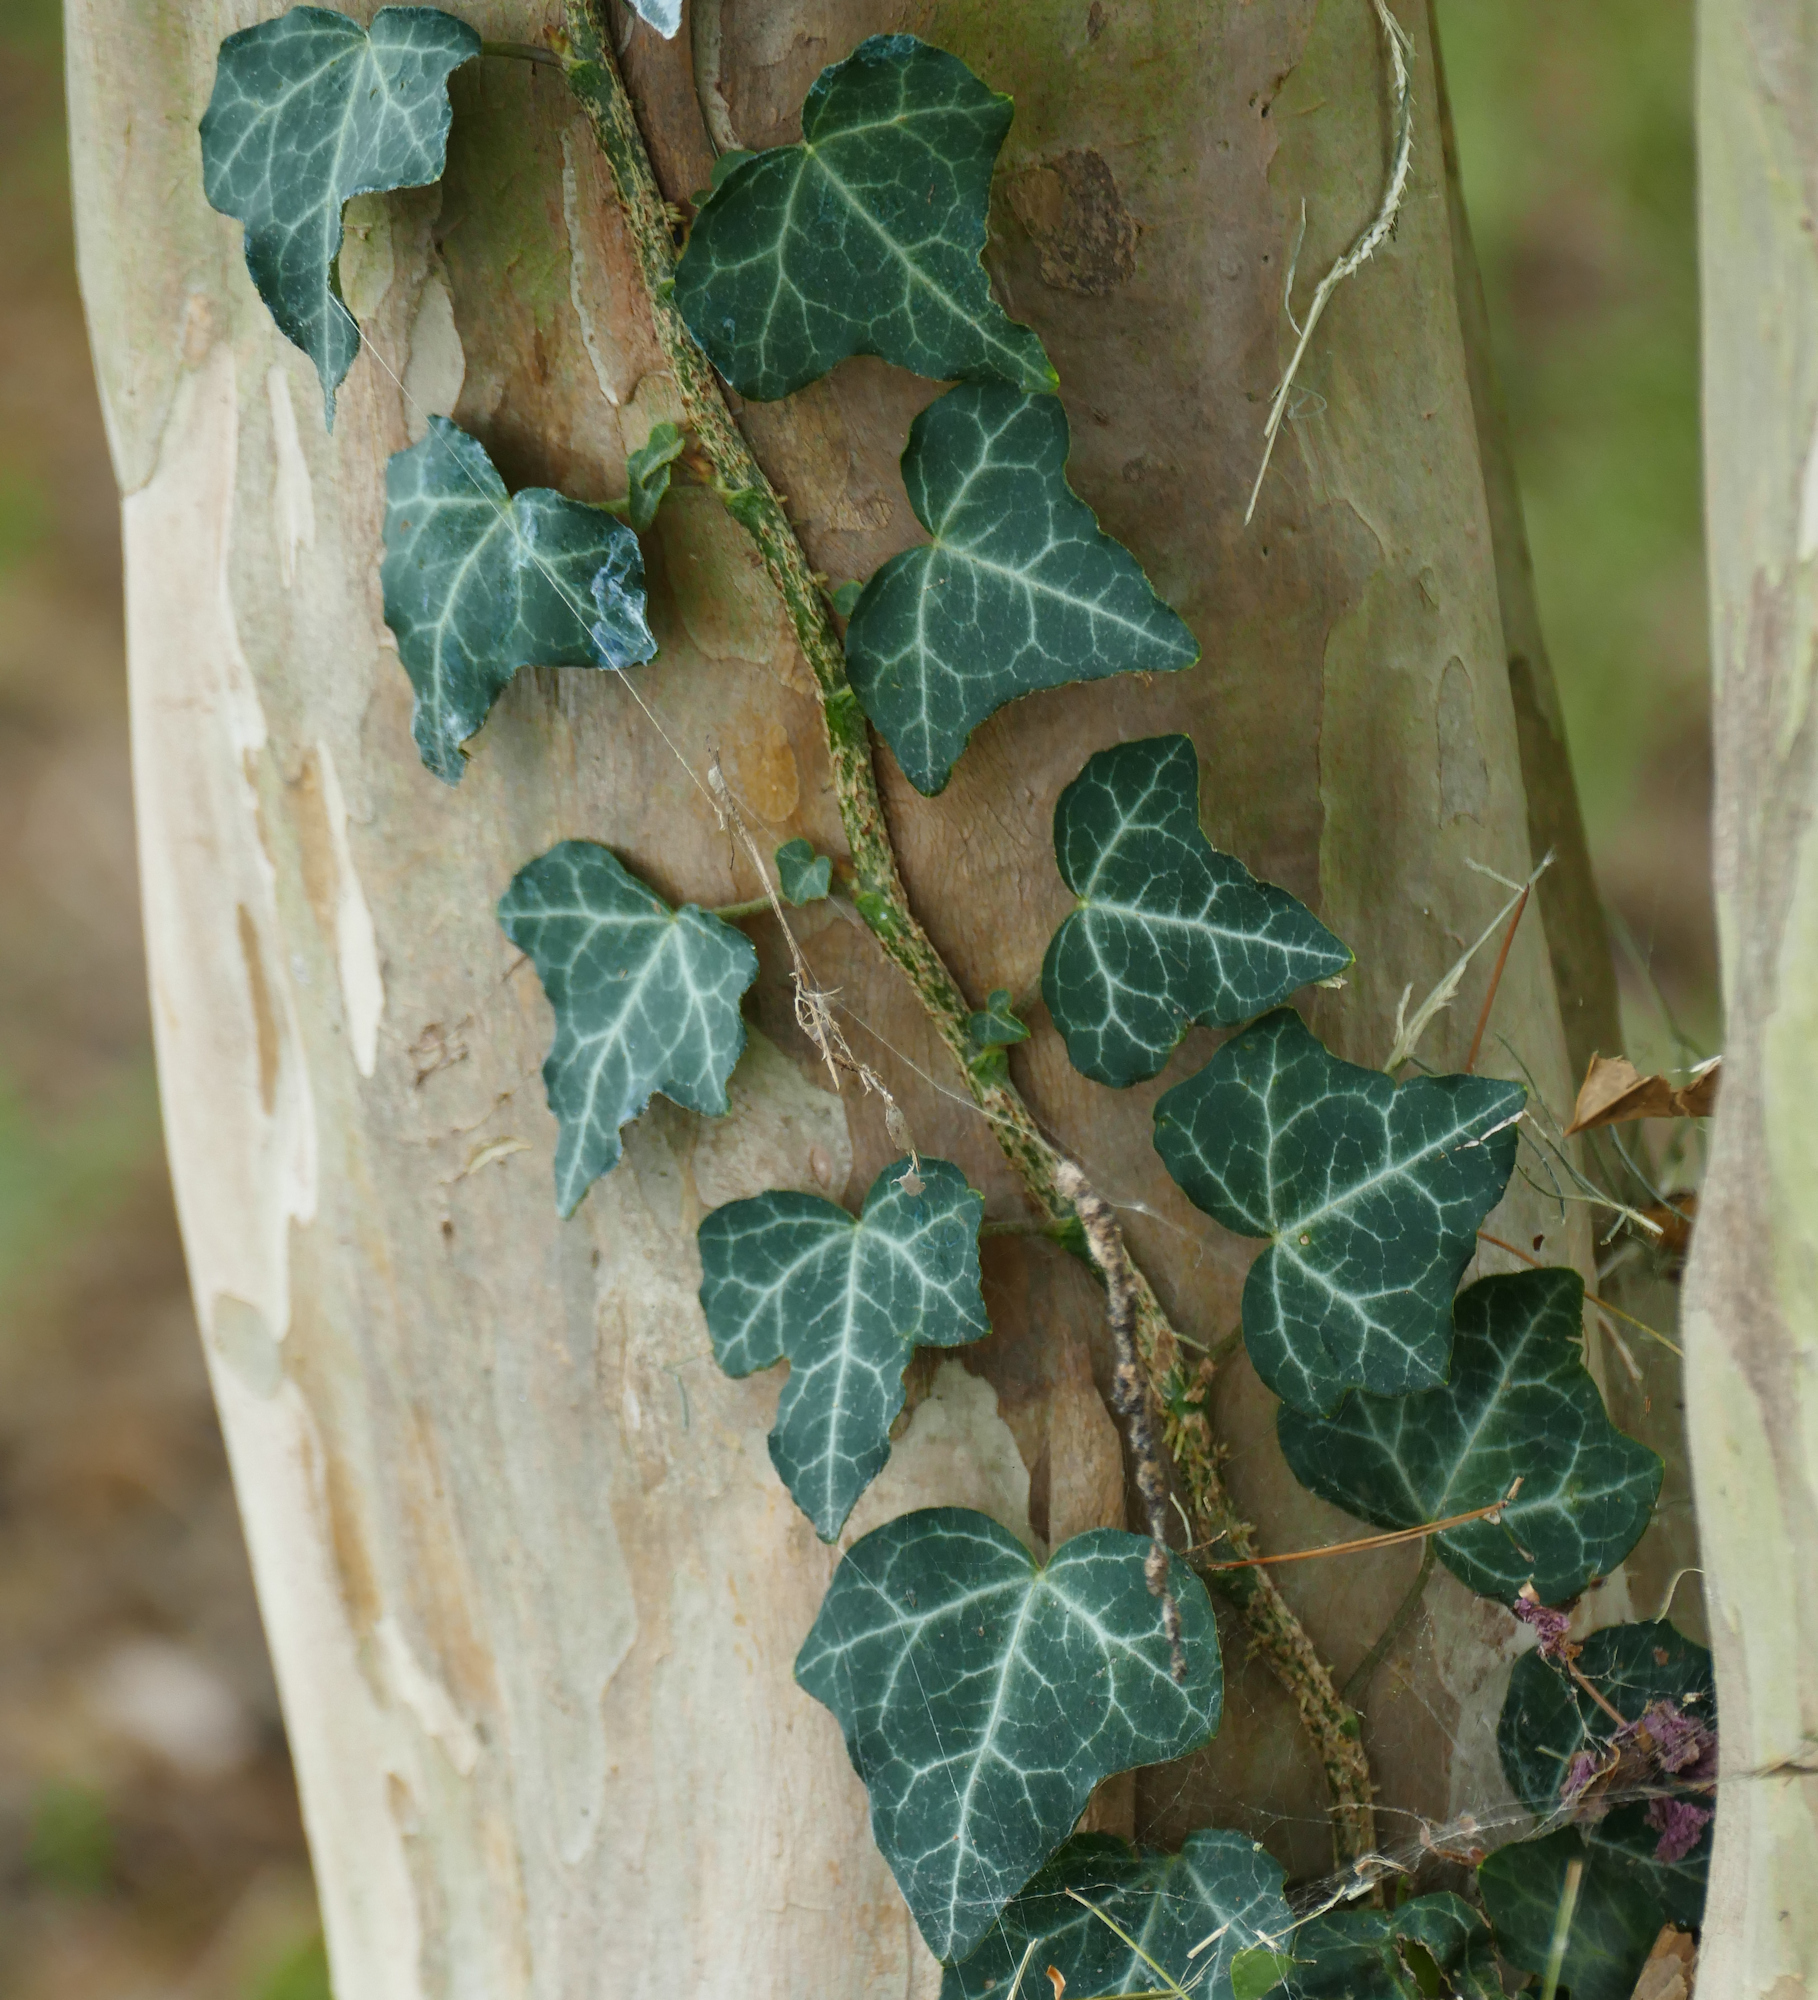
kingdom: Plantae
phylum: Tracheophyta
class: Magnoliopsida
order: Apiales
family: Araliaceae
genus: Hedera
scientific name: Hedera helix
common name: Ivy
